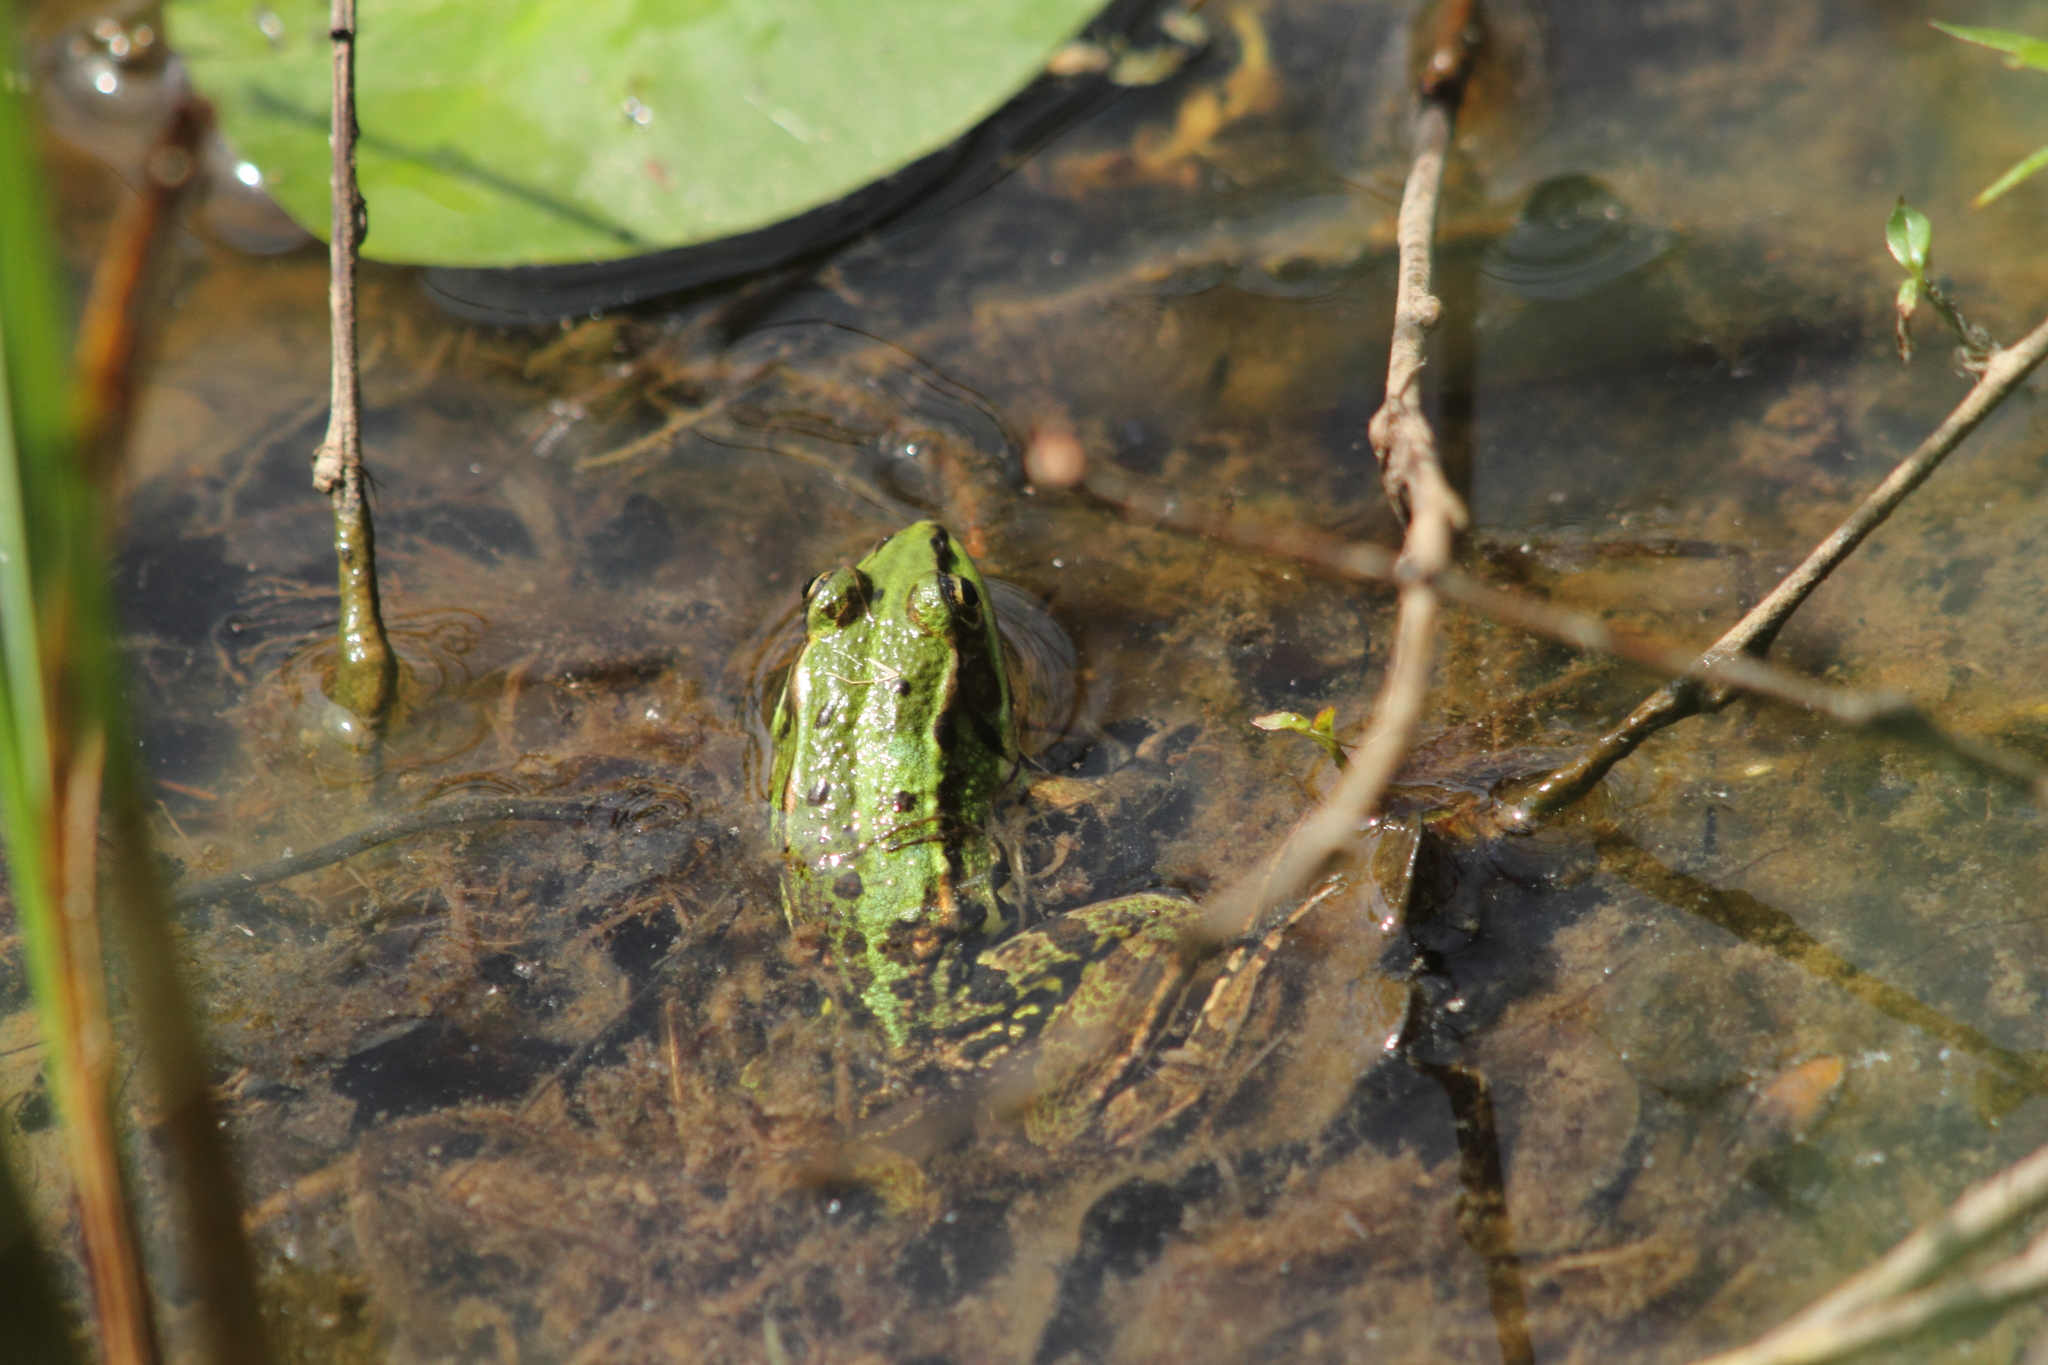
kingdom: Animalia
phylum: Chordata
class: Amphibia
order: Anura
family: Ranidae
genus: Pelophylax
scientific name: Pelophylax
